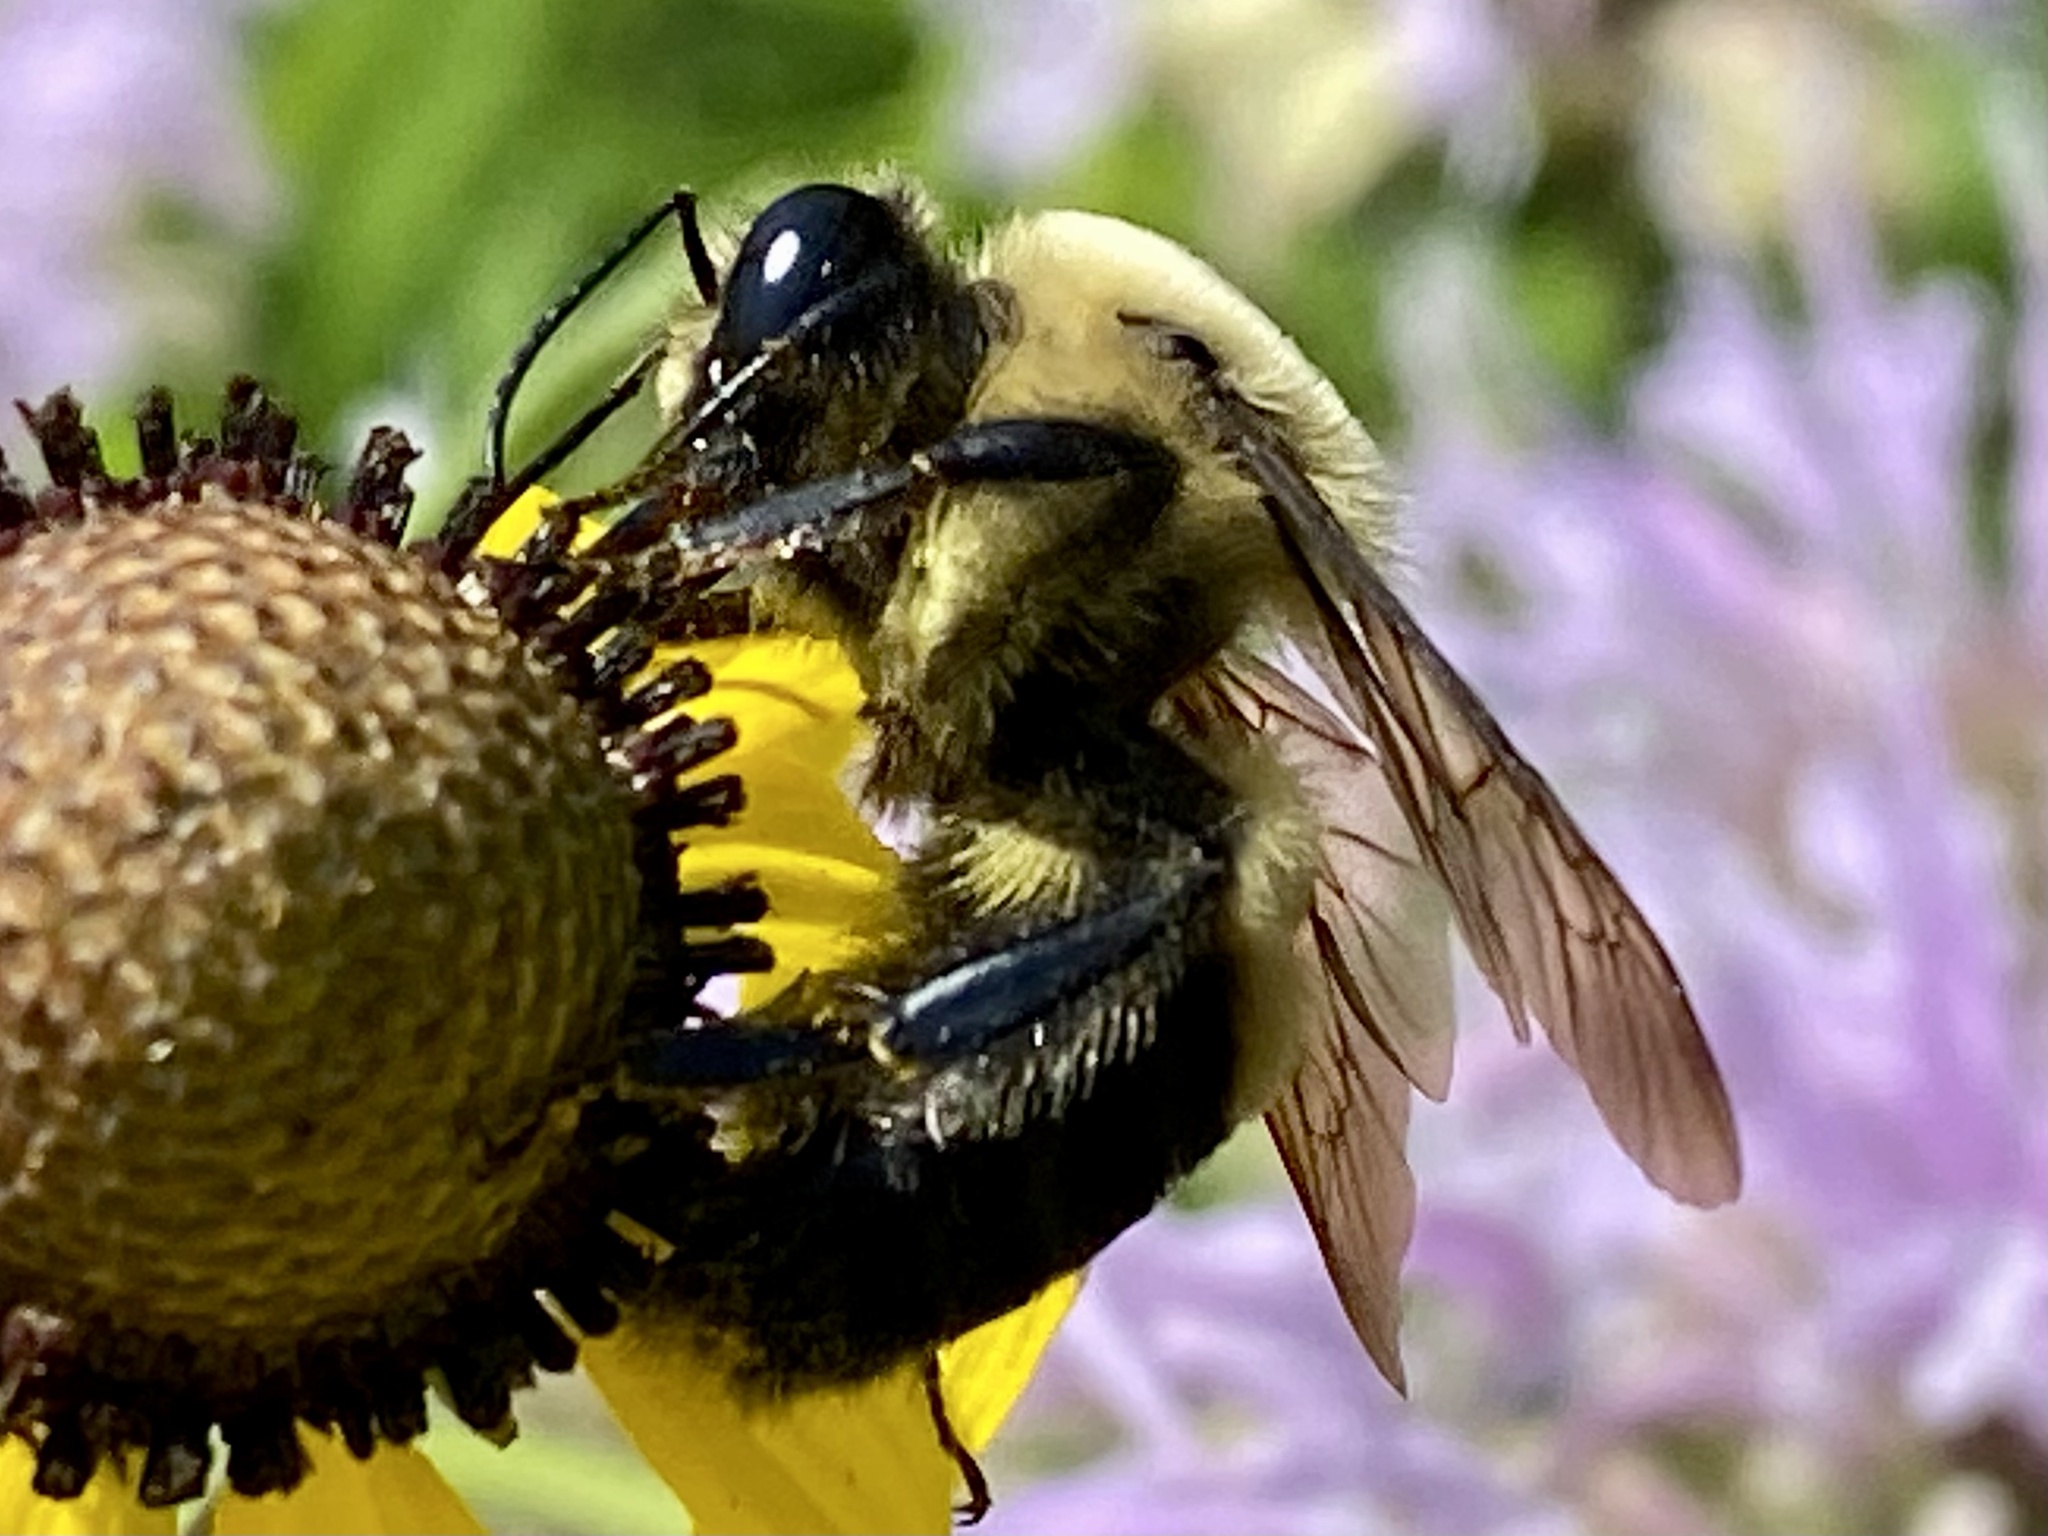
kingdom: Animalia
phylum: Arthropoda
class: Insecta
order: Hymenoptera
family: Apidae
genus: Bombus
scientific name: Bombus griseocollis
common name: Brown-belted bumble bee
